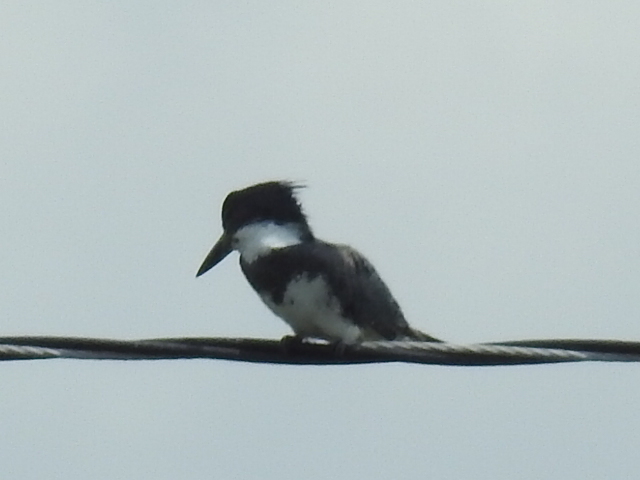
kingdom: Animalia
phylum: Chordata
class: Aves
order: Coraciiformes
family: Alcedinidae
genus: Megaceryle
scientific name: Megaceryle alcyon
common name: Belted kingfisher
